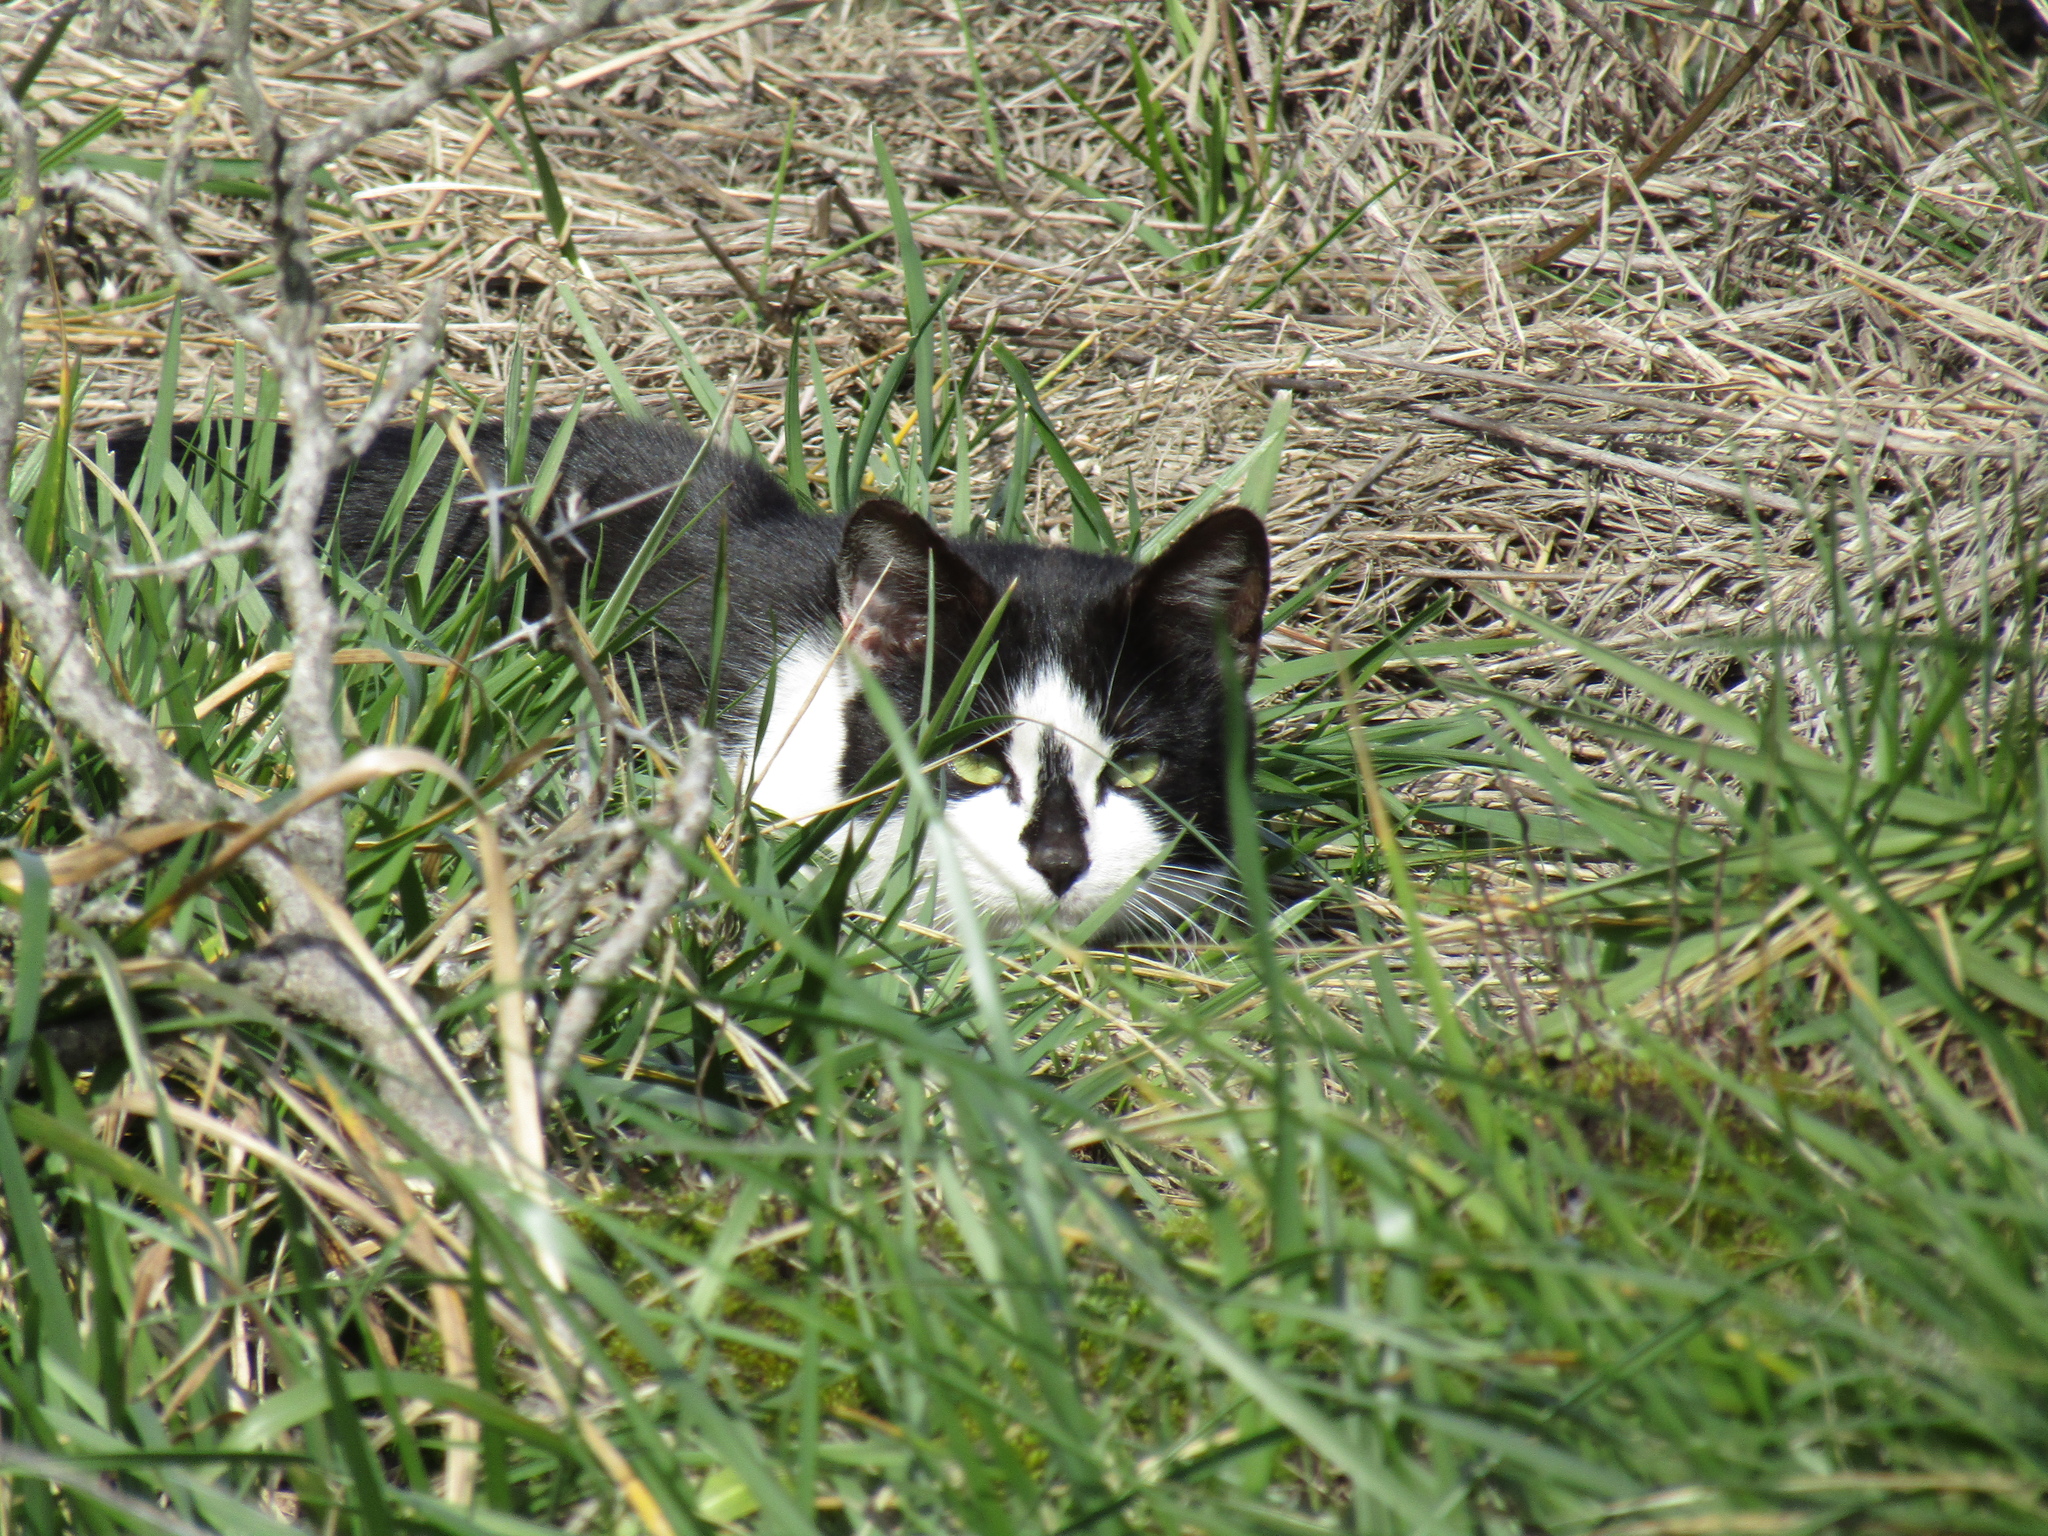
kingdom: Animalia
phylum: Chordata
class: Mammalia
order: Carnivora
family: Felidae
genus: Felis
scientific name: Felis catus
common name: Domestic cat
